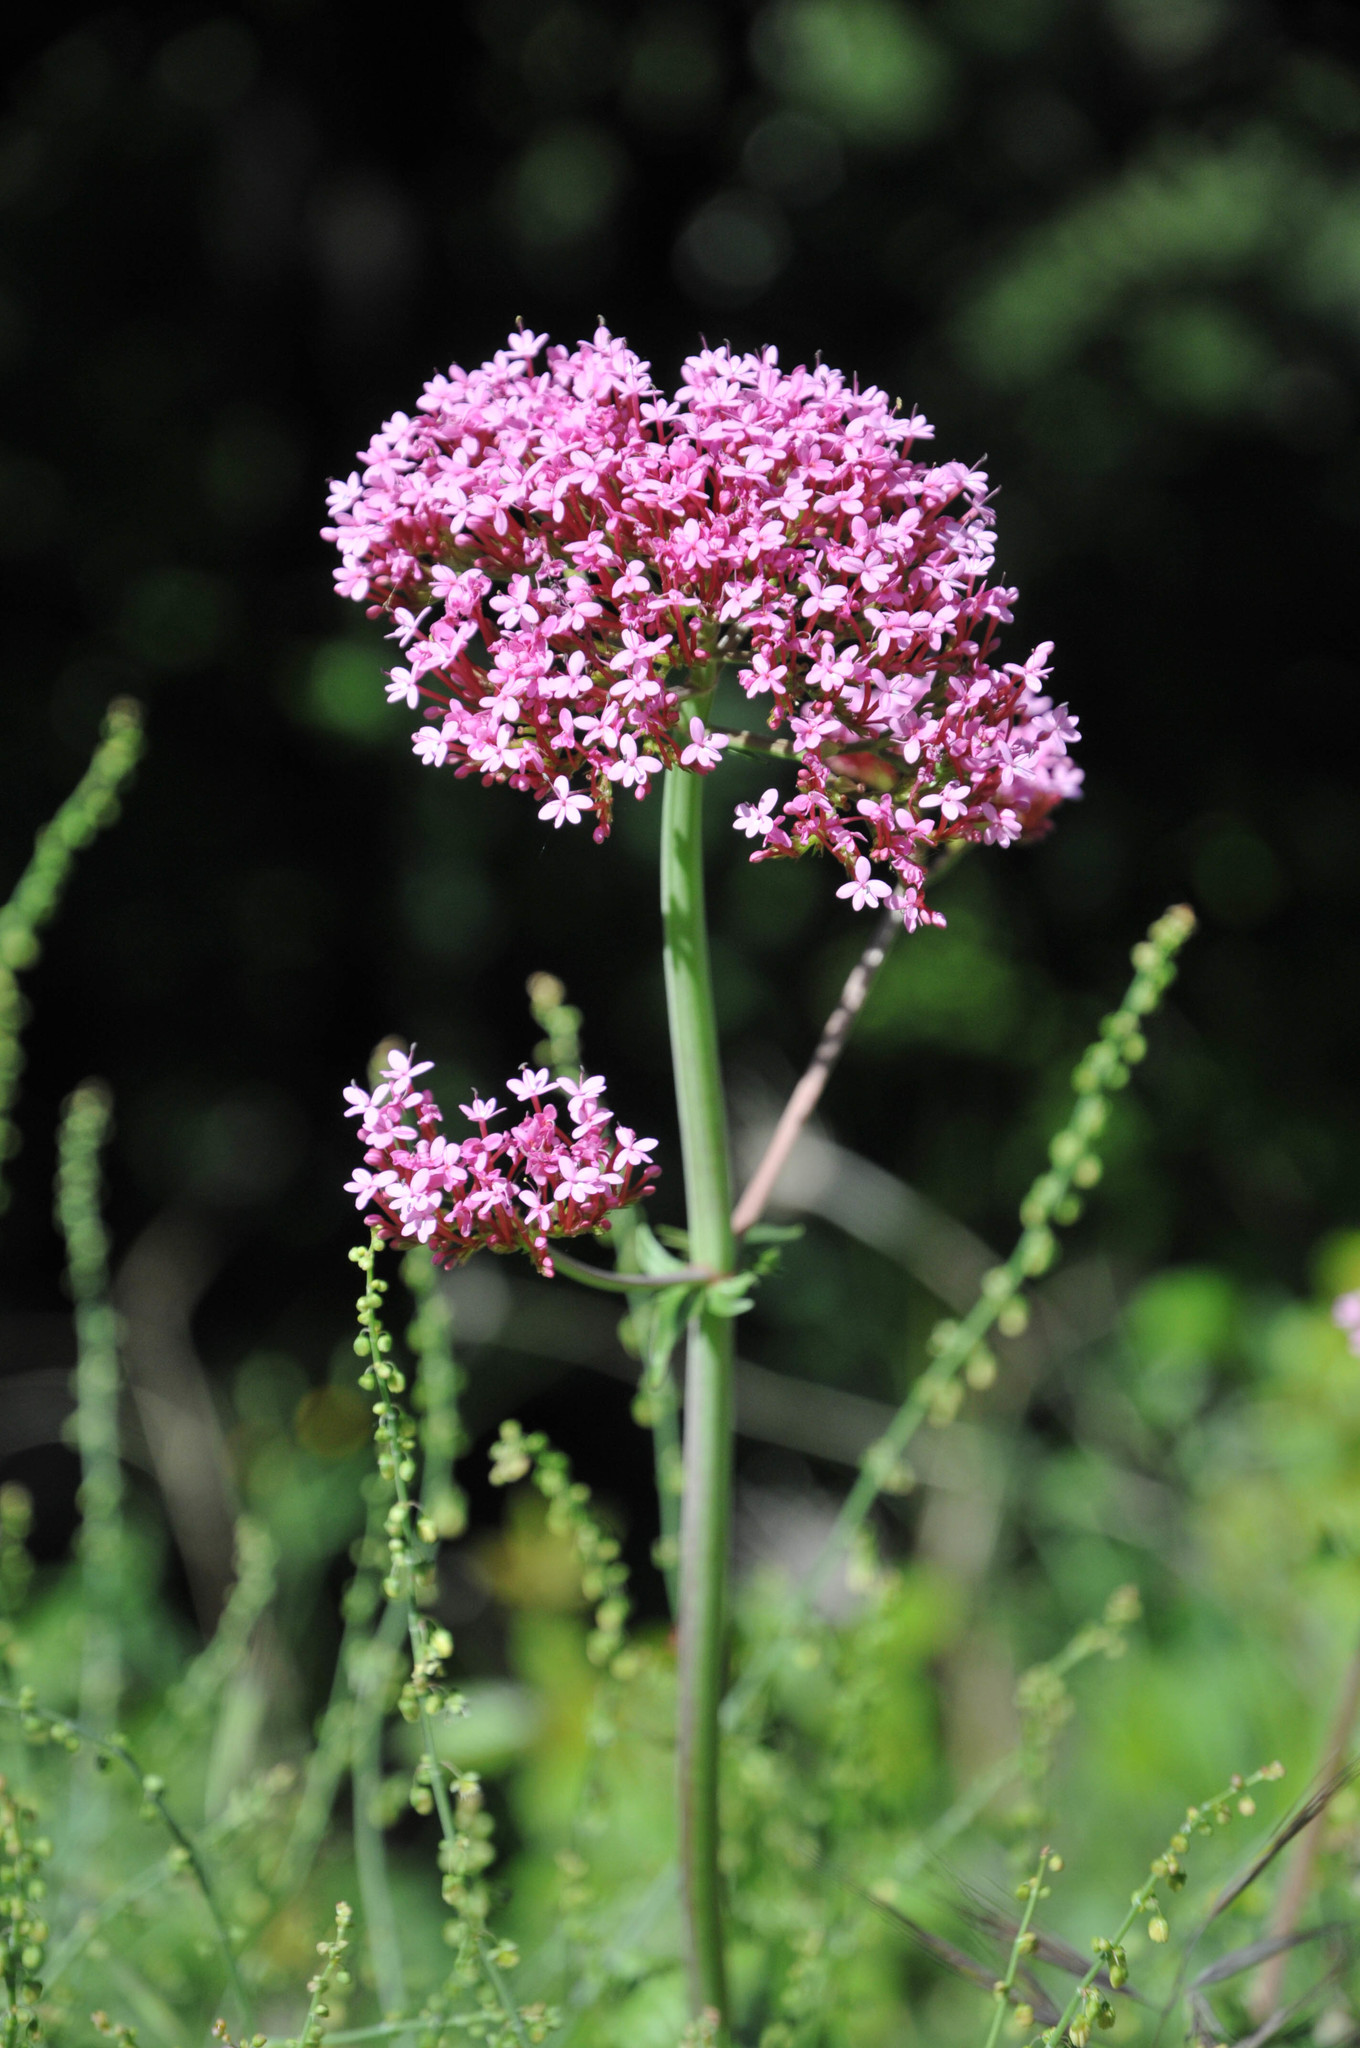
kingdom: Plantae
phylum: Tracheophyta
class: Magnoliopsida
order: Dipsacales
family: Caprifoliaceae
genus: Centranthus
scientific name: Centranthus ruber
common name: Red valerian
